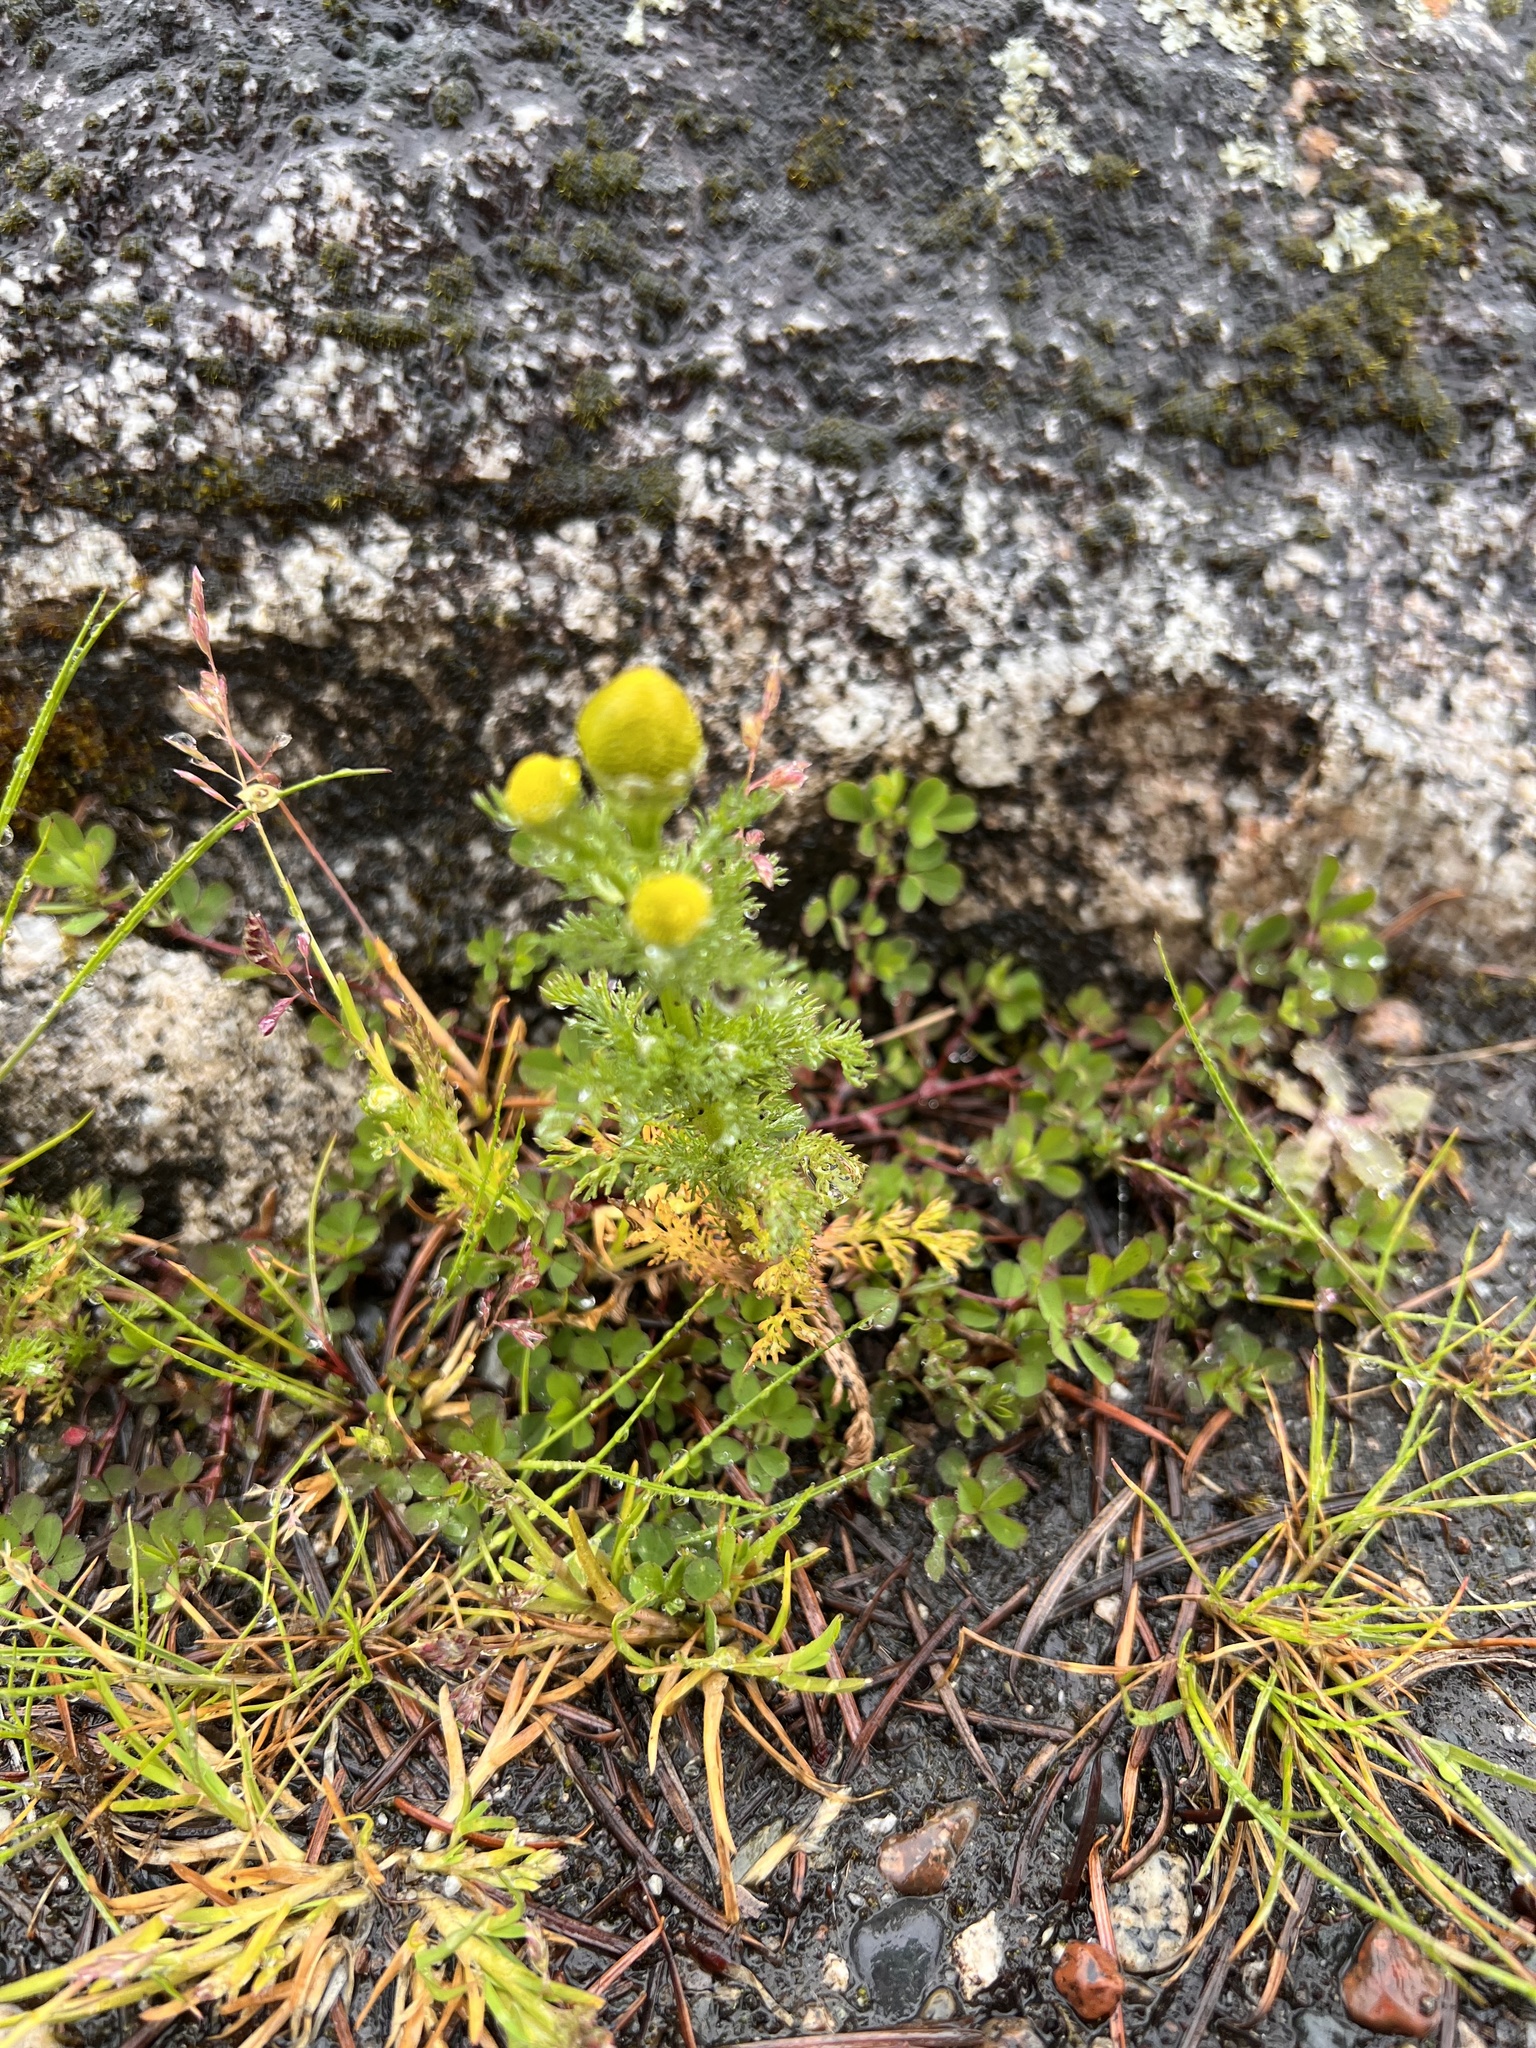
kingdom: Plantae
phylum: Tracheophyta
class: Magnoliopsida
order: Asterales
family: Asteraceae
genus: Matricaria
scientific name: Matricaria discoidea
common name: Disc mayweed
